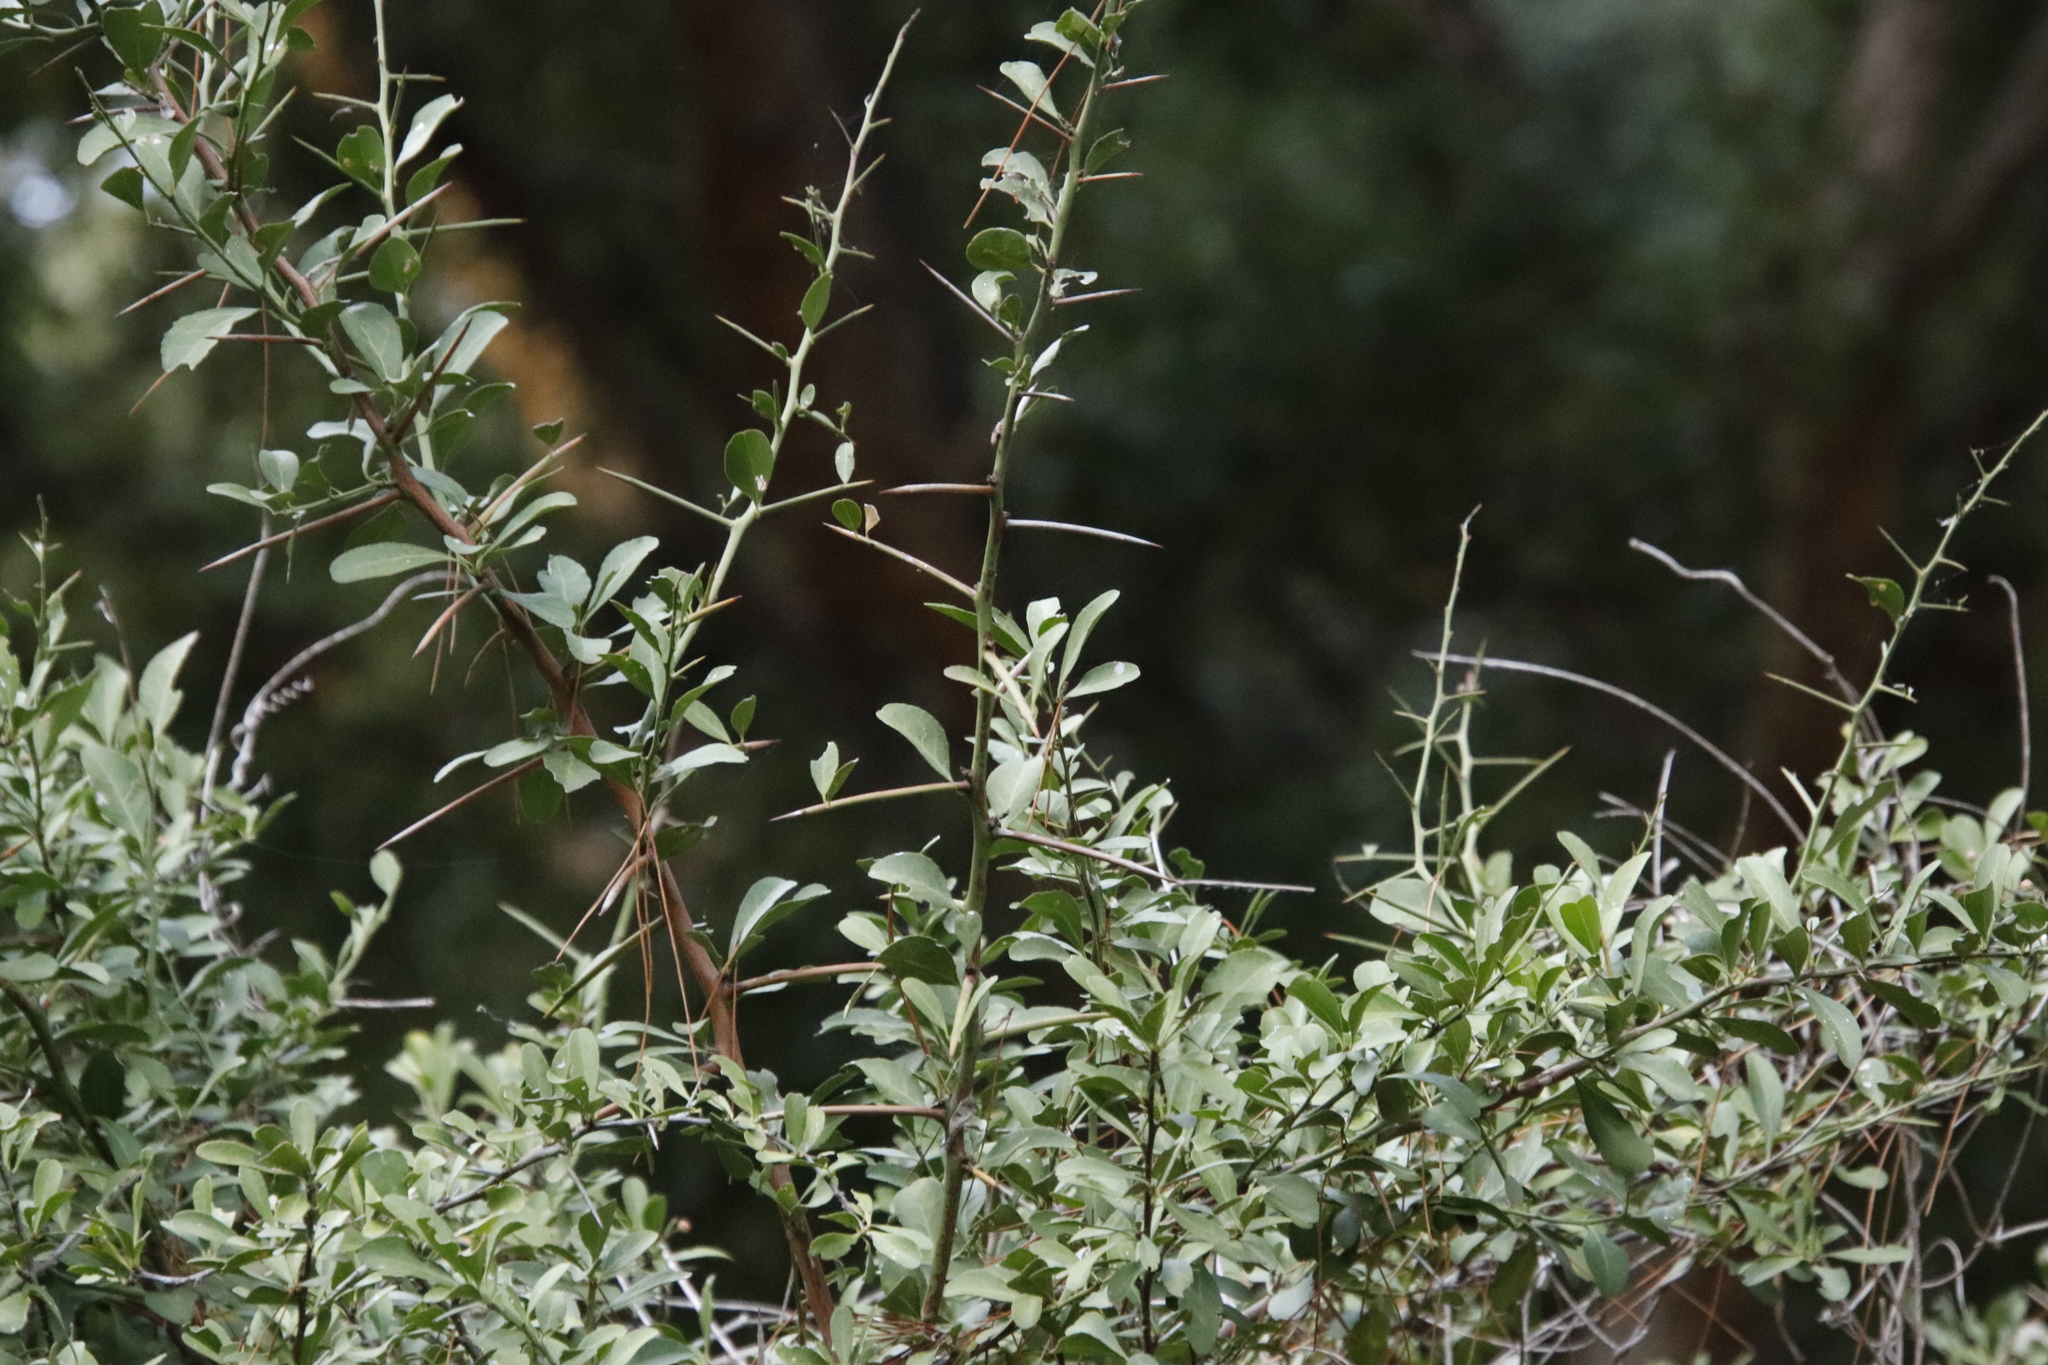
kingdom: Plantae
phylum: Tracheophyta
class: Magnoliopsida
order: Celastrales
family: Celastraceae
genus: Gymnosporia
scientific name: Gymnosporia buxifolia
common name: Common spike-thorn
